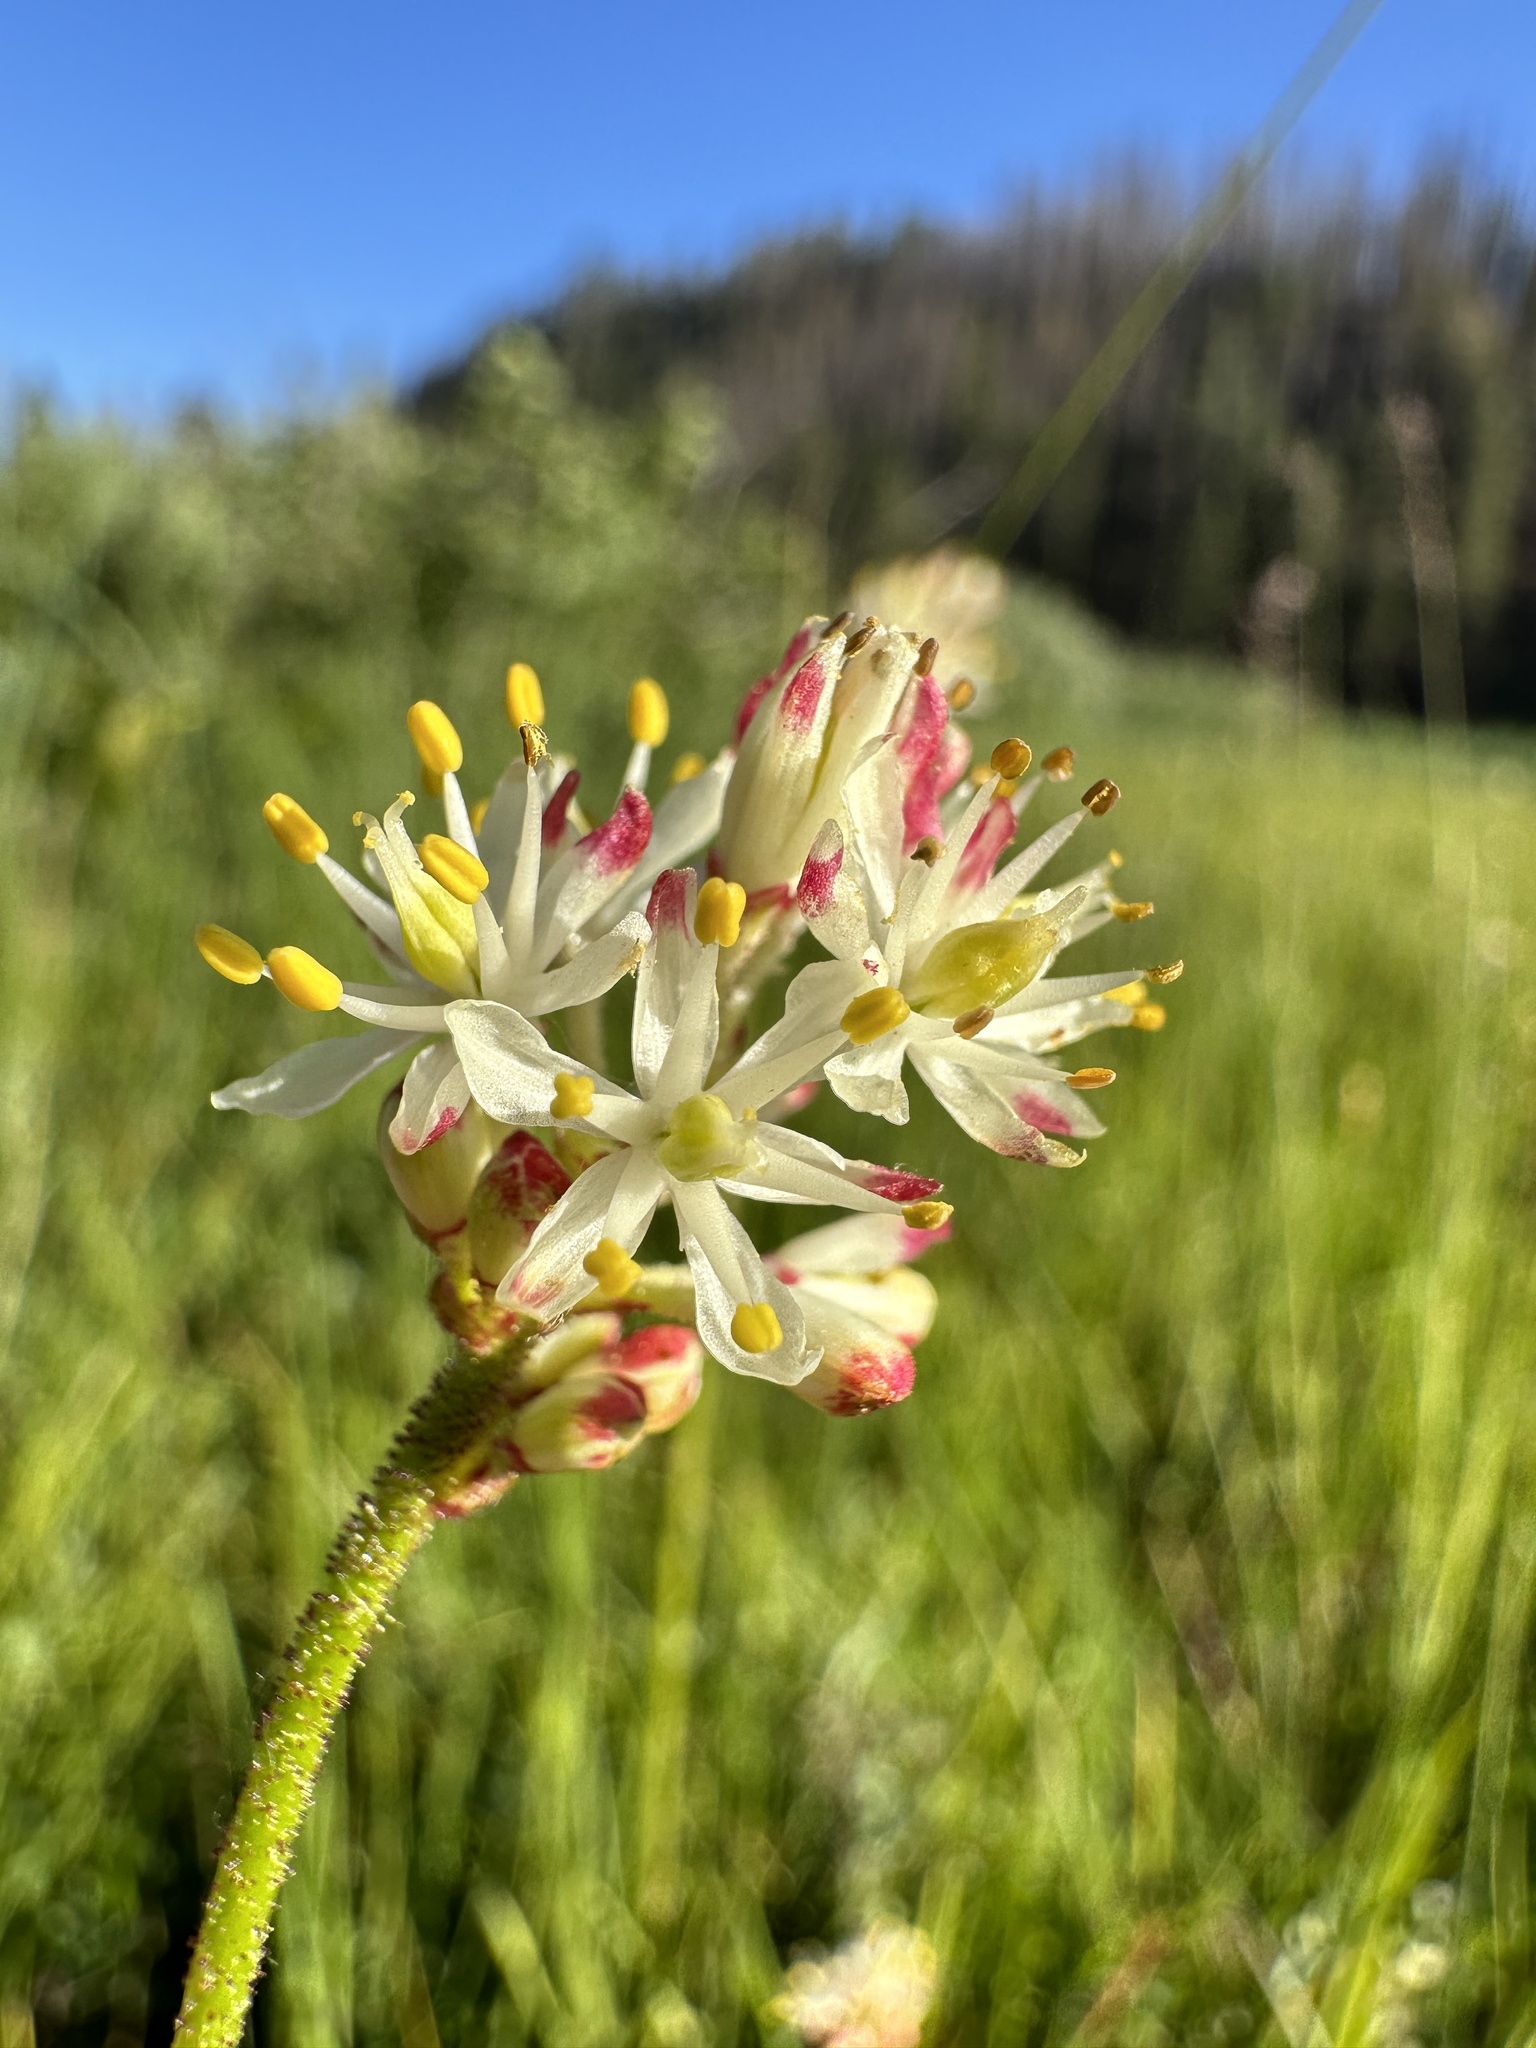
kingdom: Plantae
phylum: Tracheophyta
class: Liliopsida
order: Alismatales
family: Tofieldiaceae
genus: Triantha
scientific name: Triantha occidentalis
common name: Western false asphodel
